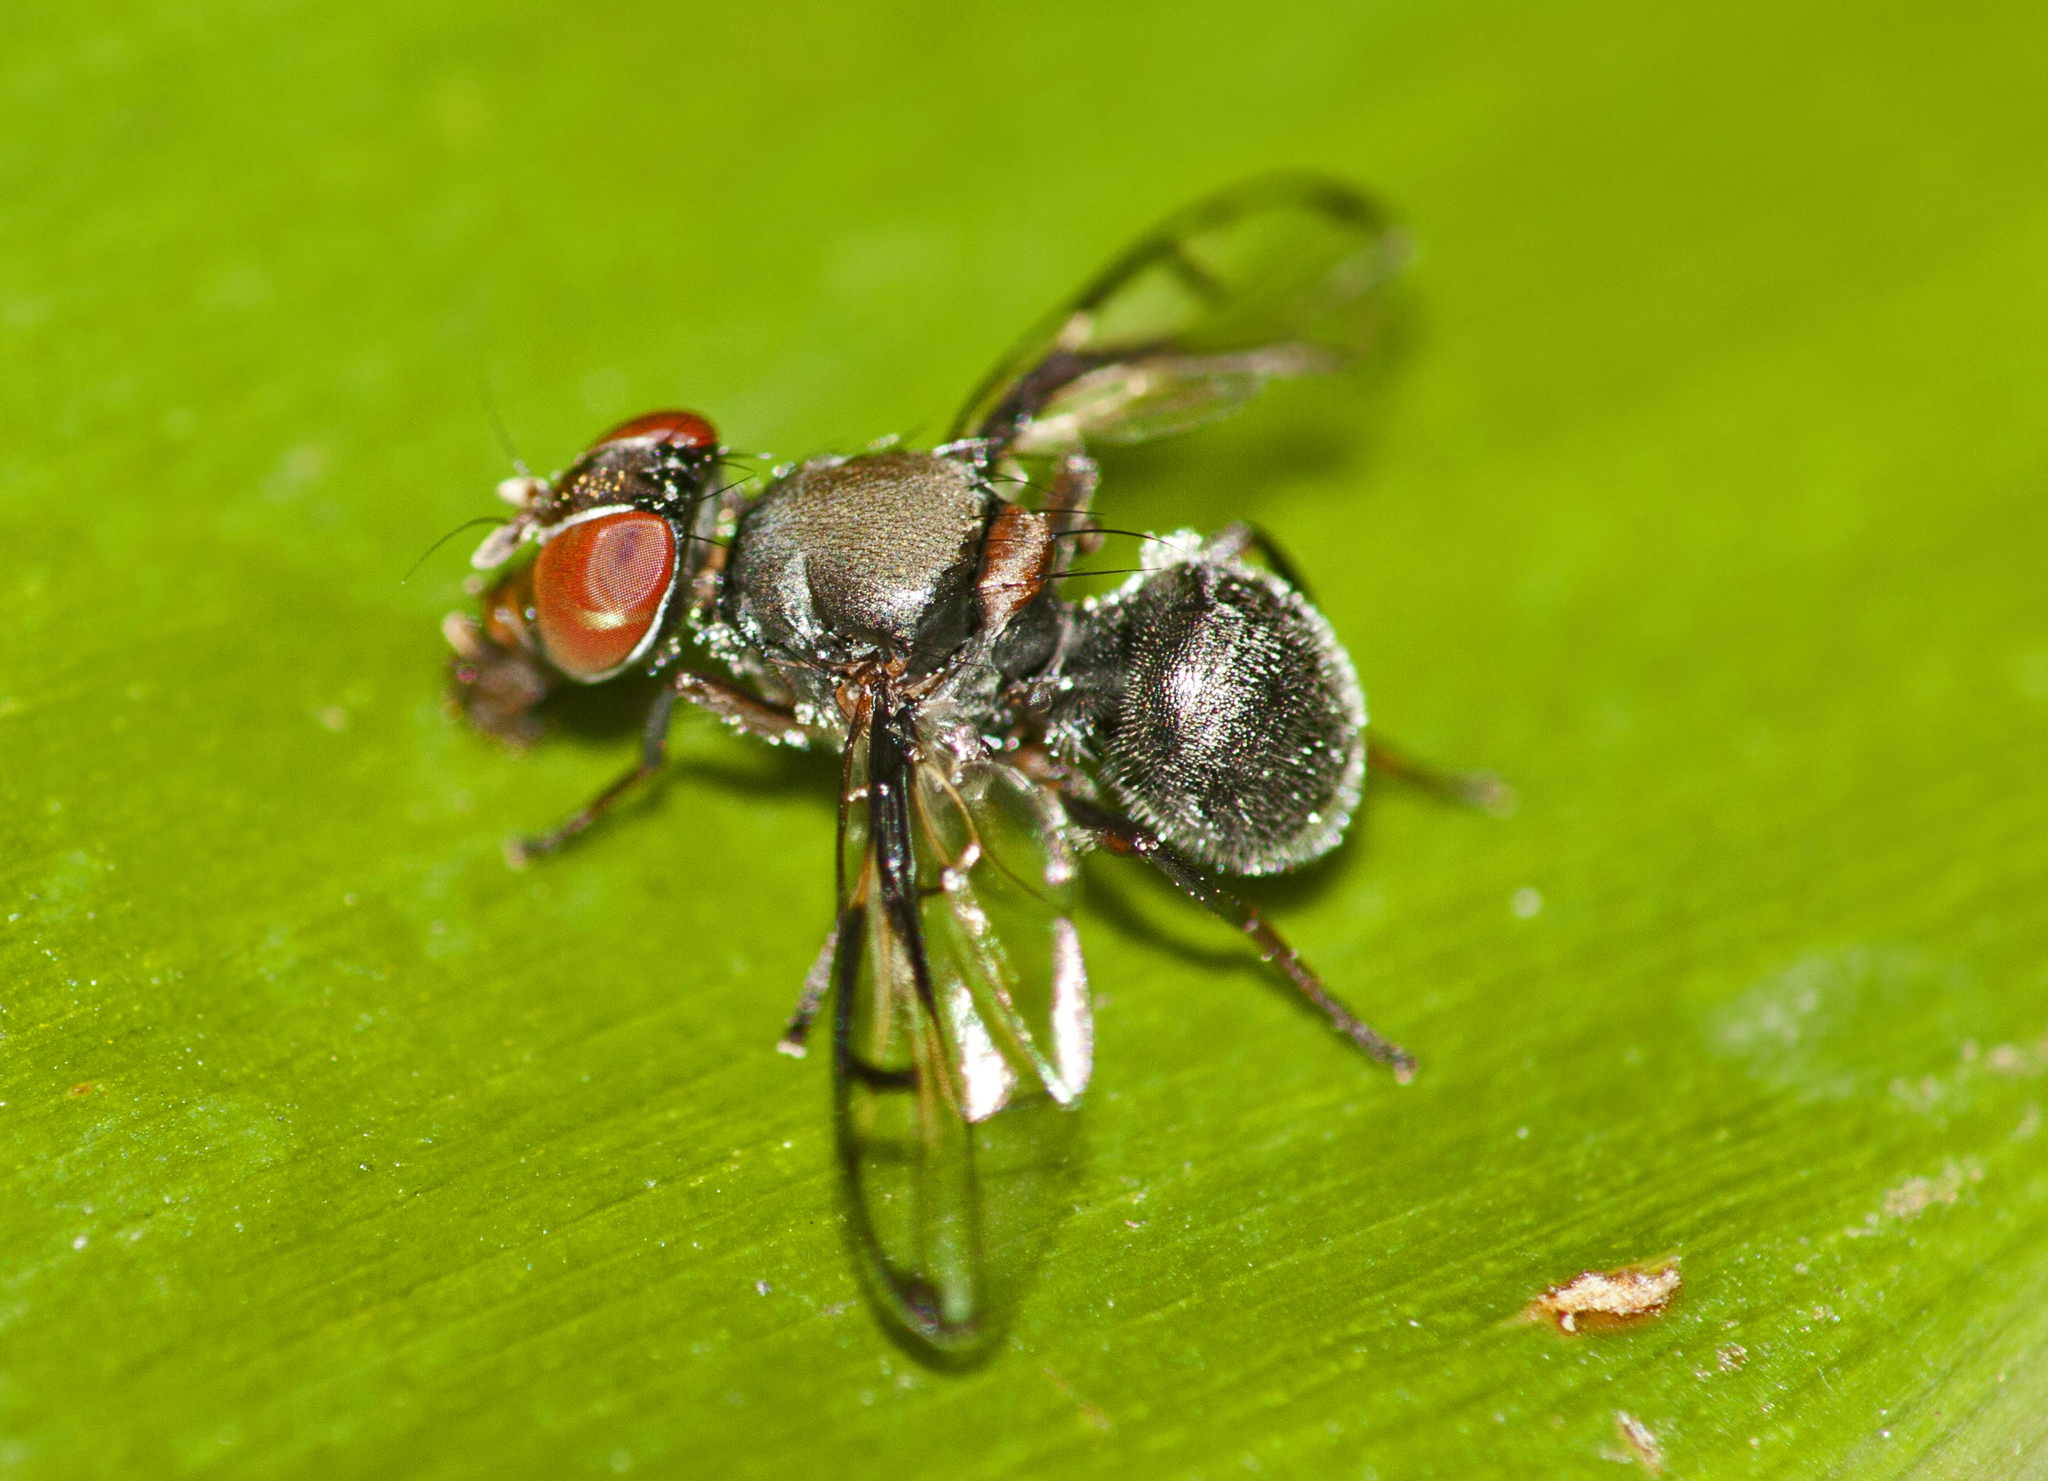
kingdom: Animalia
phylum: Arthropoda
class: Insecta
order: Diptera
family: Platystomatidae
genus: Pogonortalis
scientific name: Pogonortalis doclea
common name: Boatman fly
